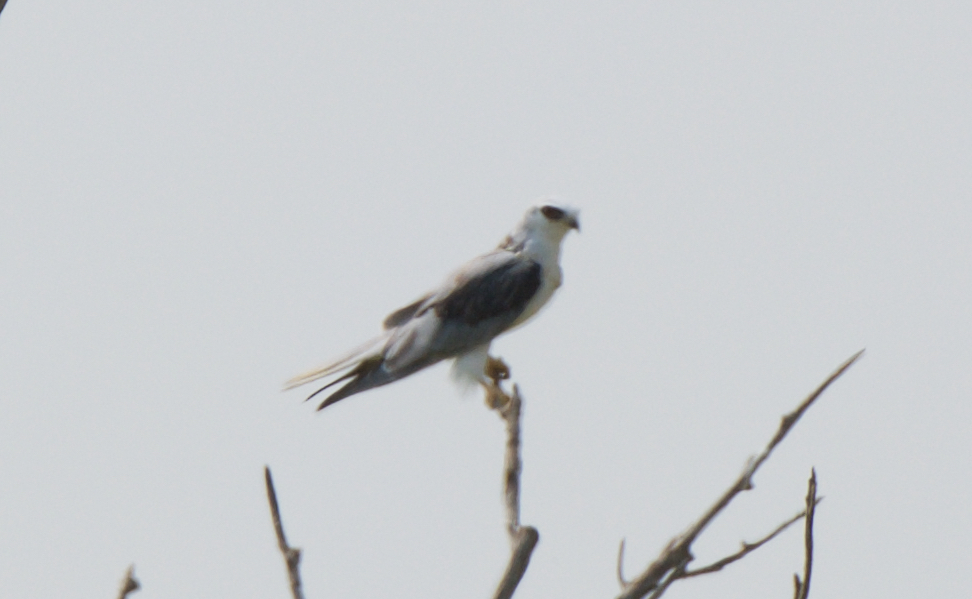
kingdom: Animalia
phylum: Chordata
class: Aves
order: Accipitriformes
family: Accipitridae
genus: Elanus
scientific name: Elanus leucurus
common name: White-tailed kite
